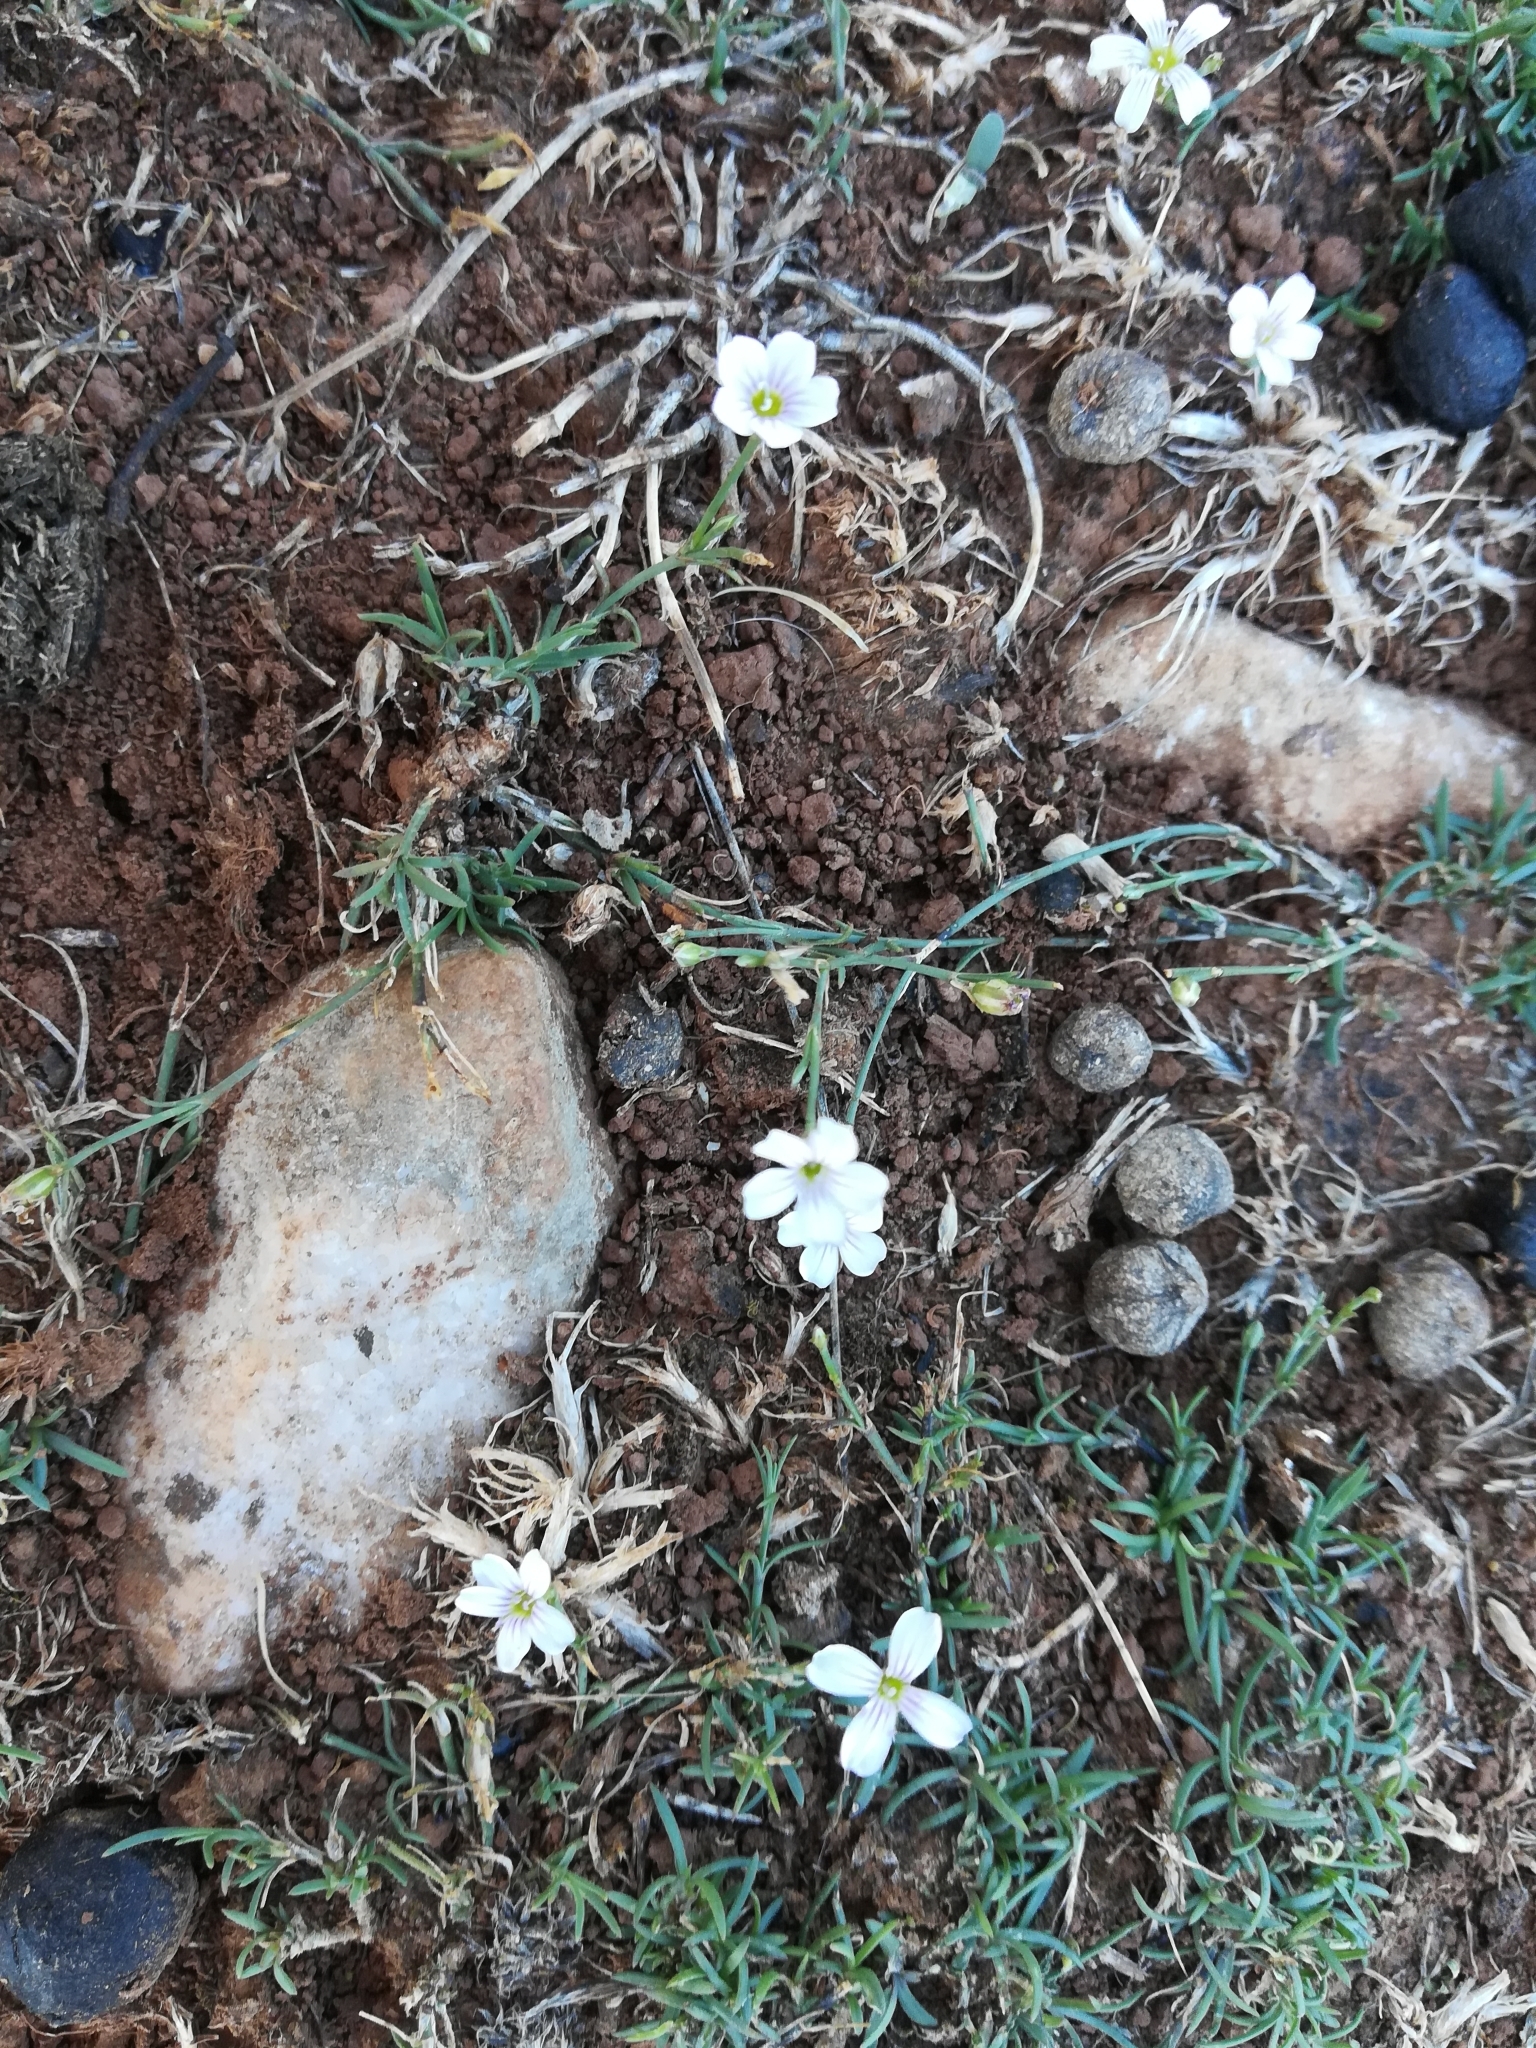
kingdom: Plantae
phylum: Tracheophyta
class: Magnoliopsida
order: Caryophyllales
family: Caryophyllaceae
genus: Petrorhagia
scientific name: Petrorhagia saxifraga
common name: Tunicflower
